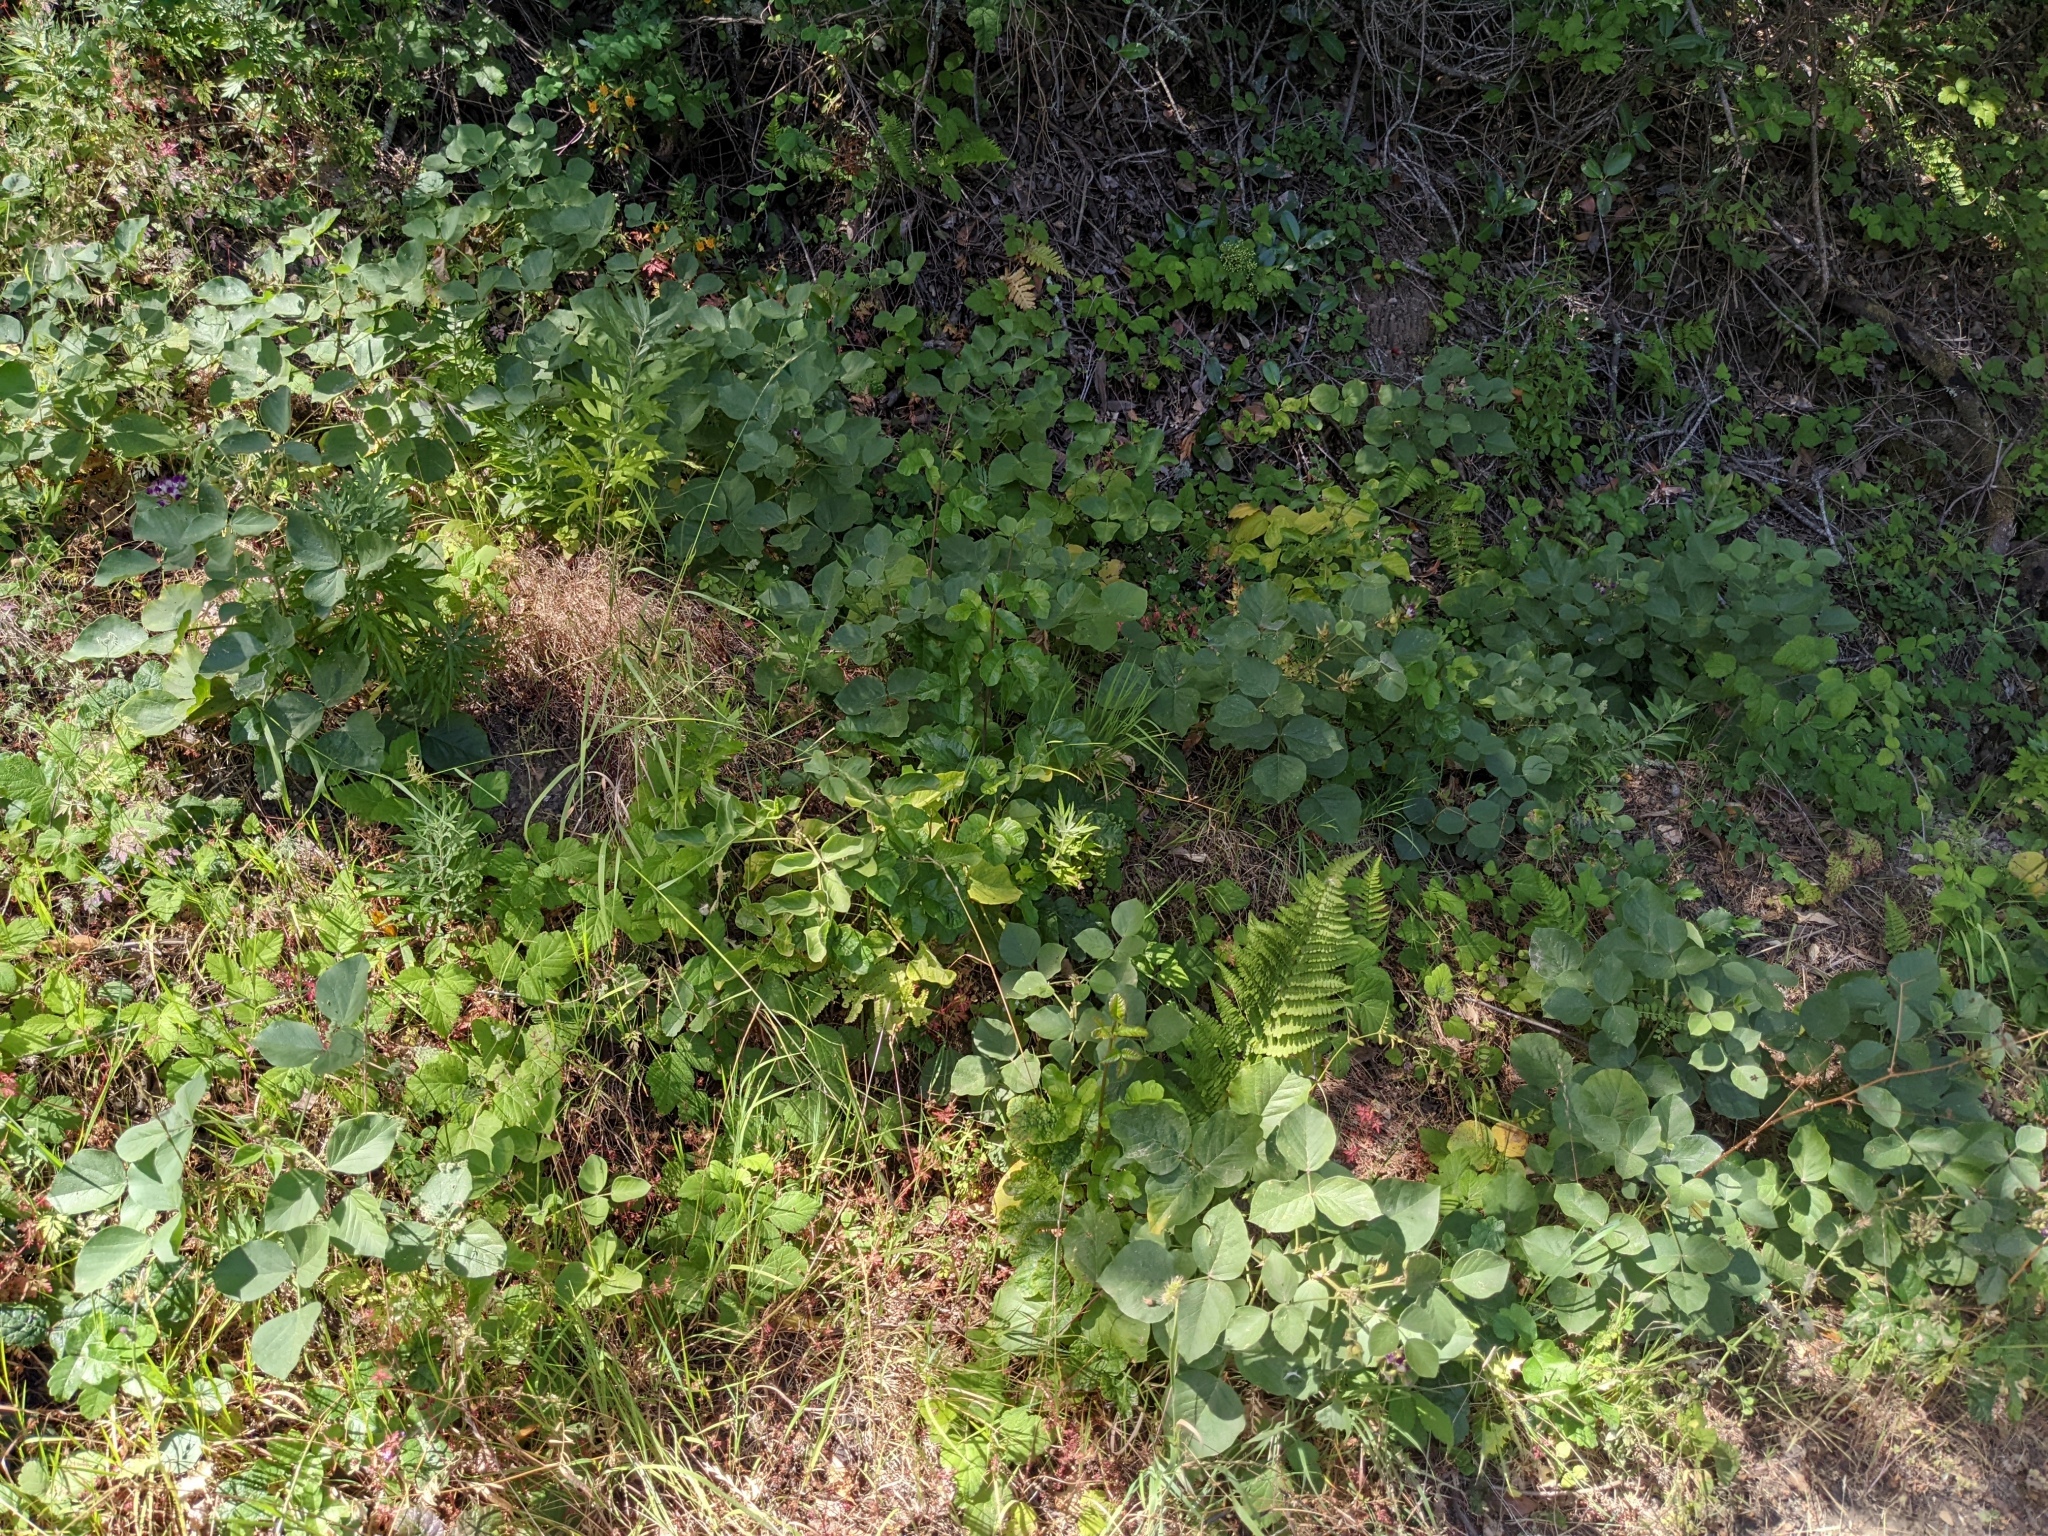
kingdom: Plantae
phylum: Tracheophyta
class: Magnoliopsida
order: Fabales
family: Fabaceae
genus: Hoita
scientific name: Hoita strobilina
